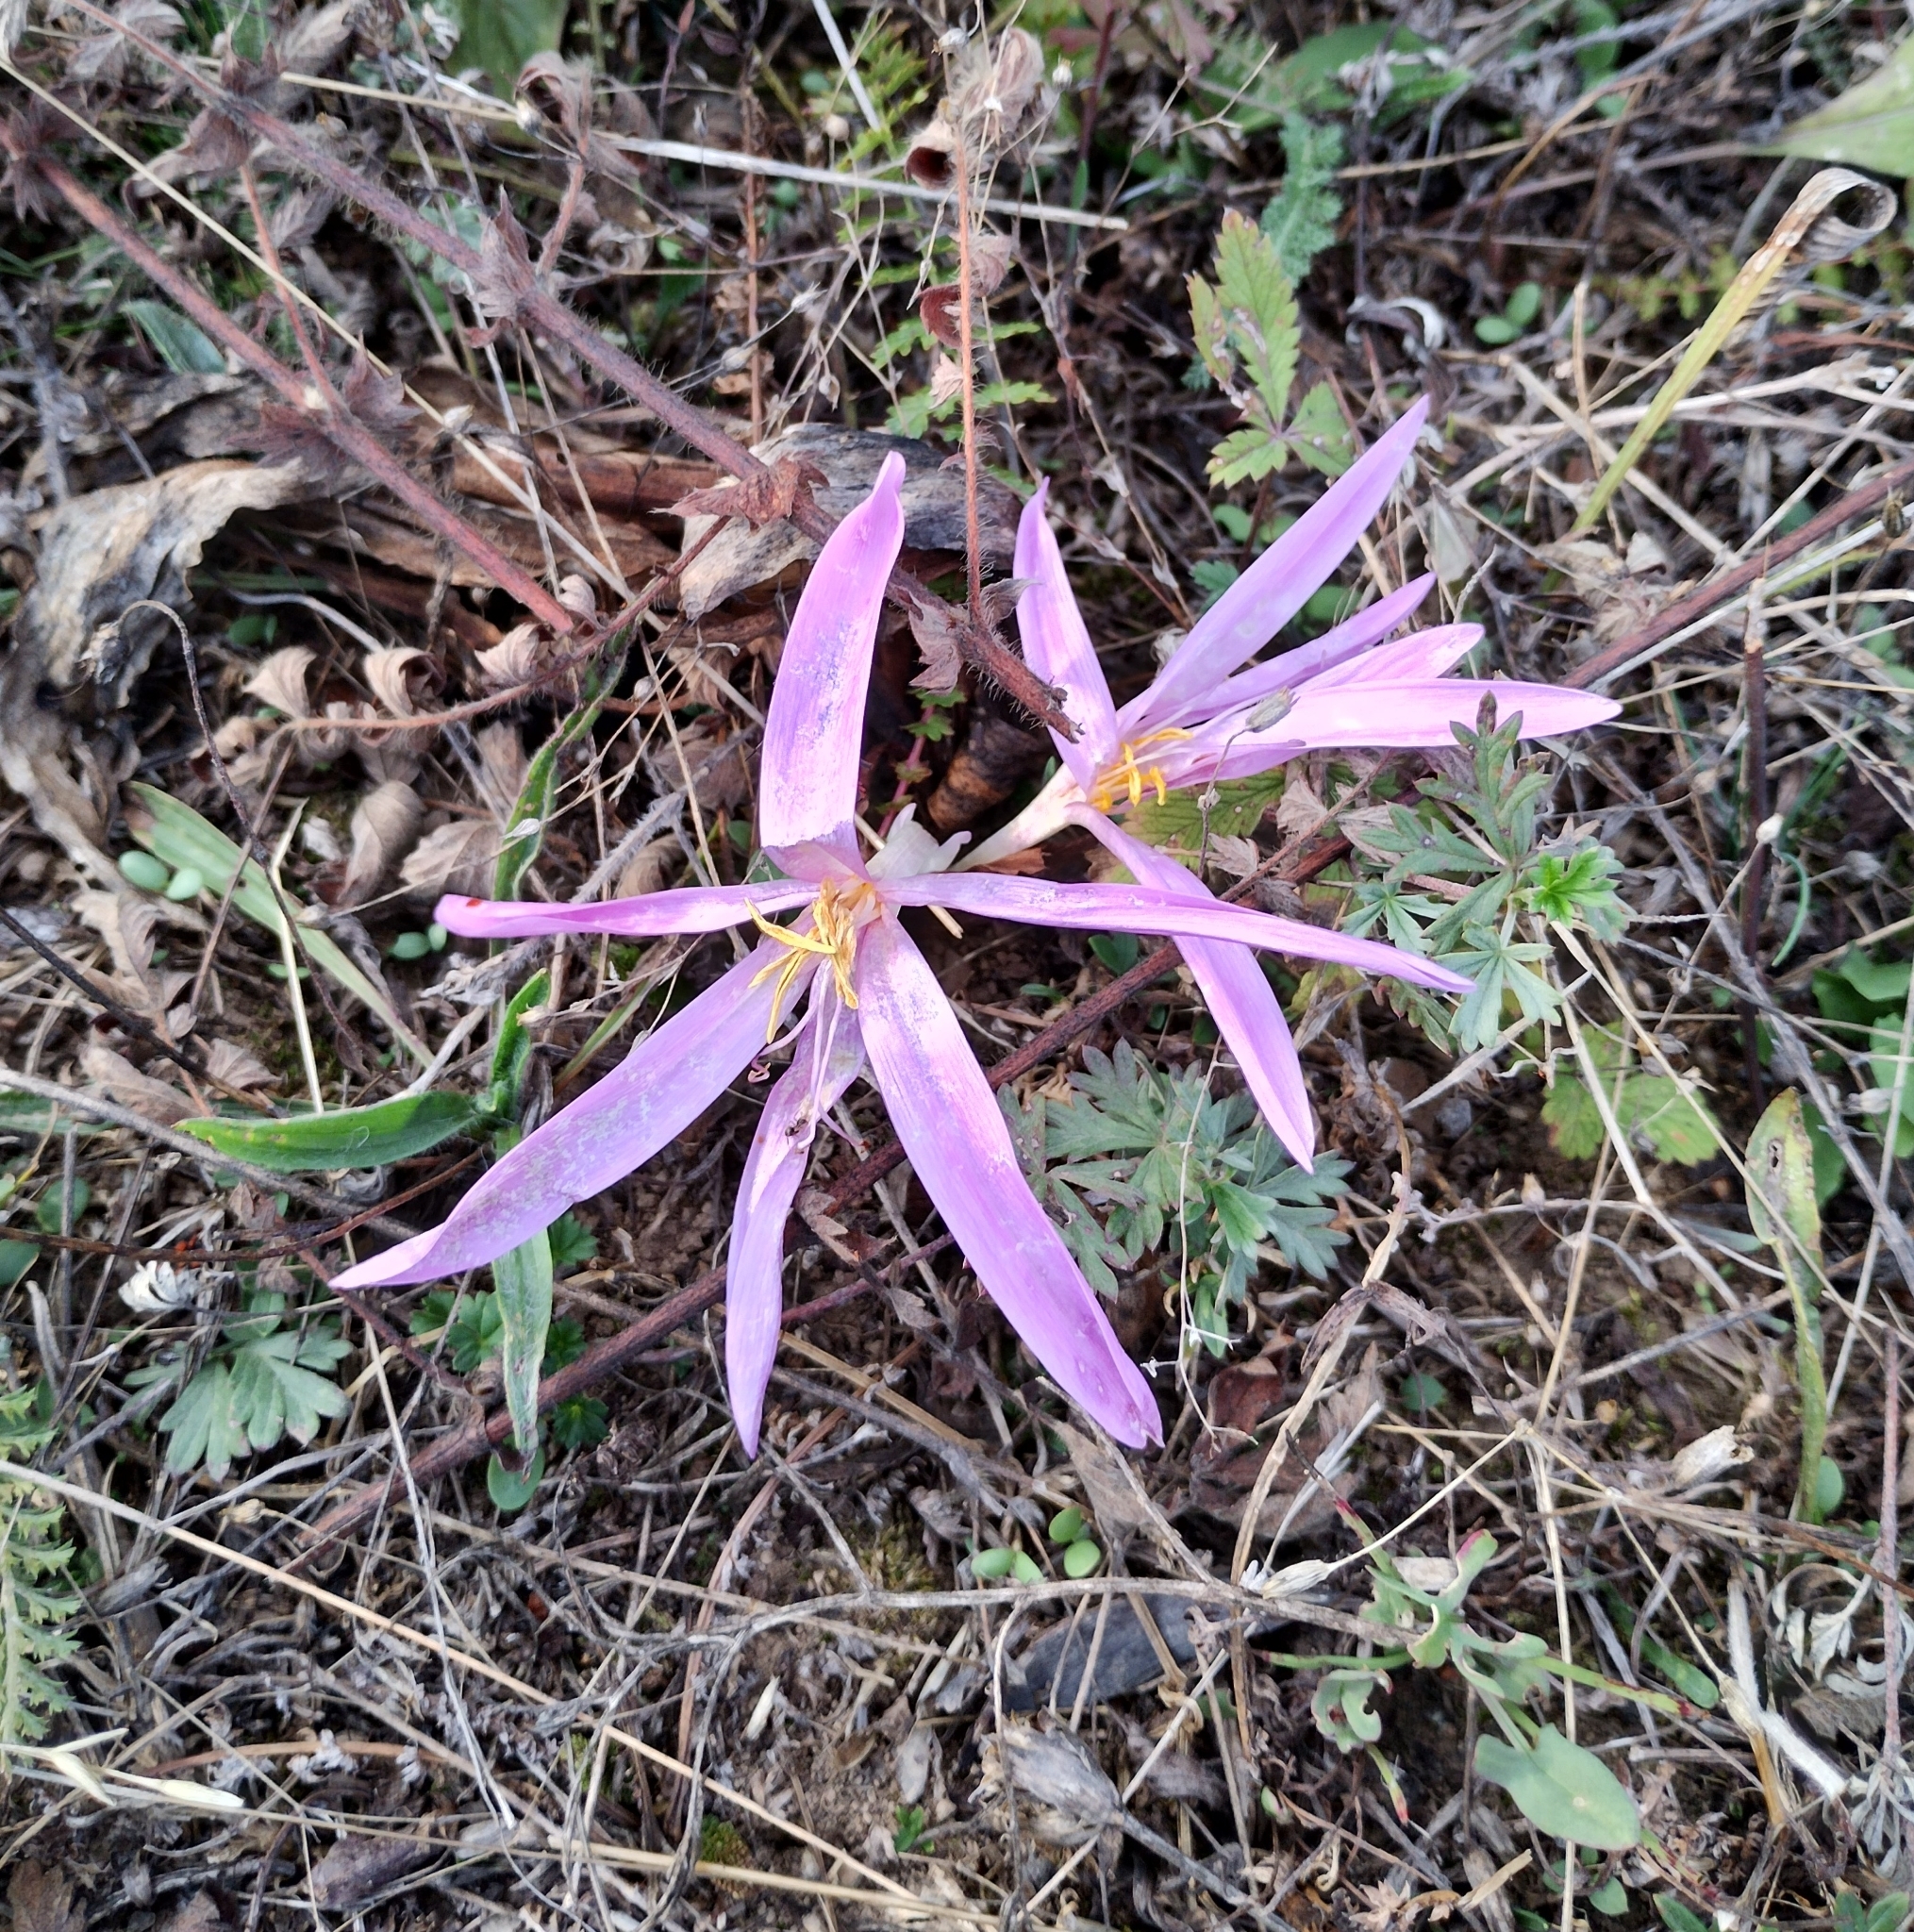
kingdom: Plantae
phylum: Tracheophyta
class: Liliopsida
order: Liliales
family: Colchicaceae
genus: Colchicum
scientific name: Colchicum autumnale
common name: Autumn crocus
